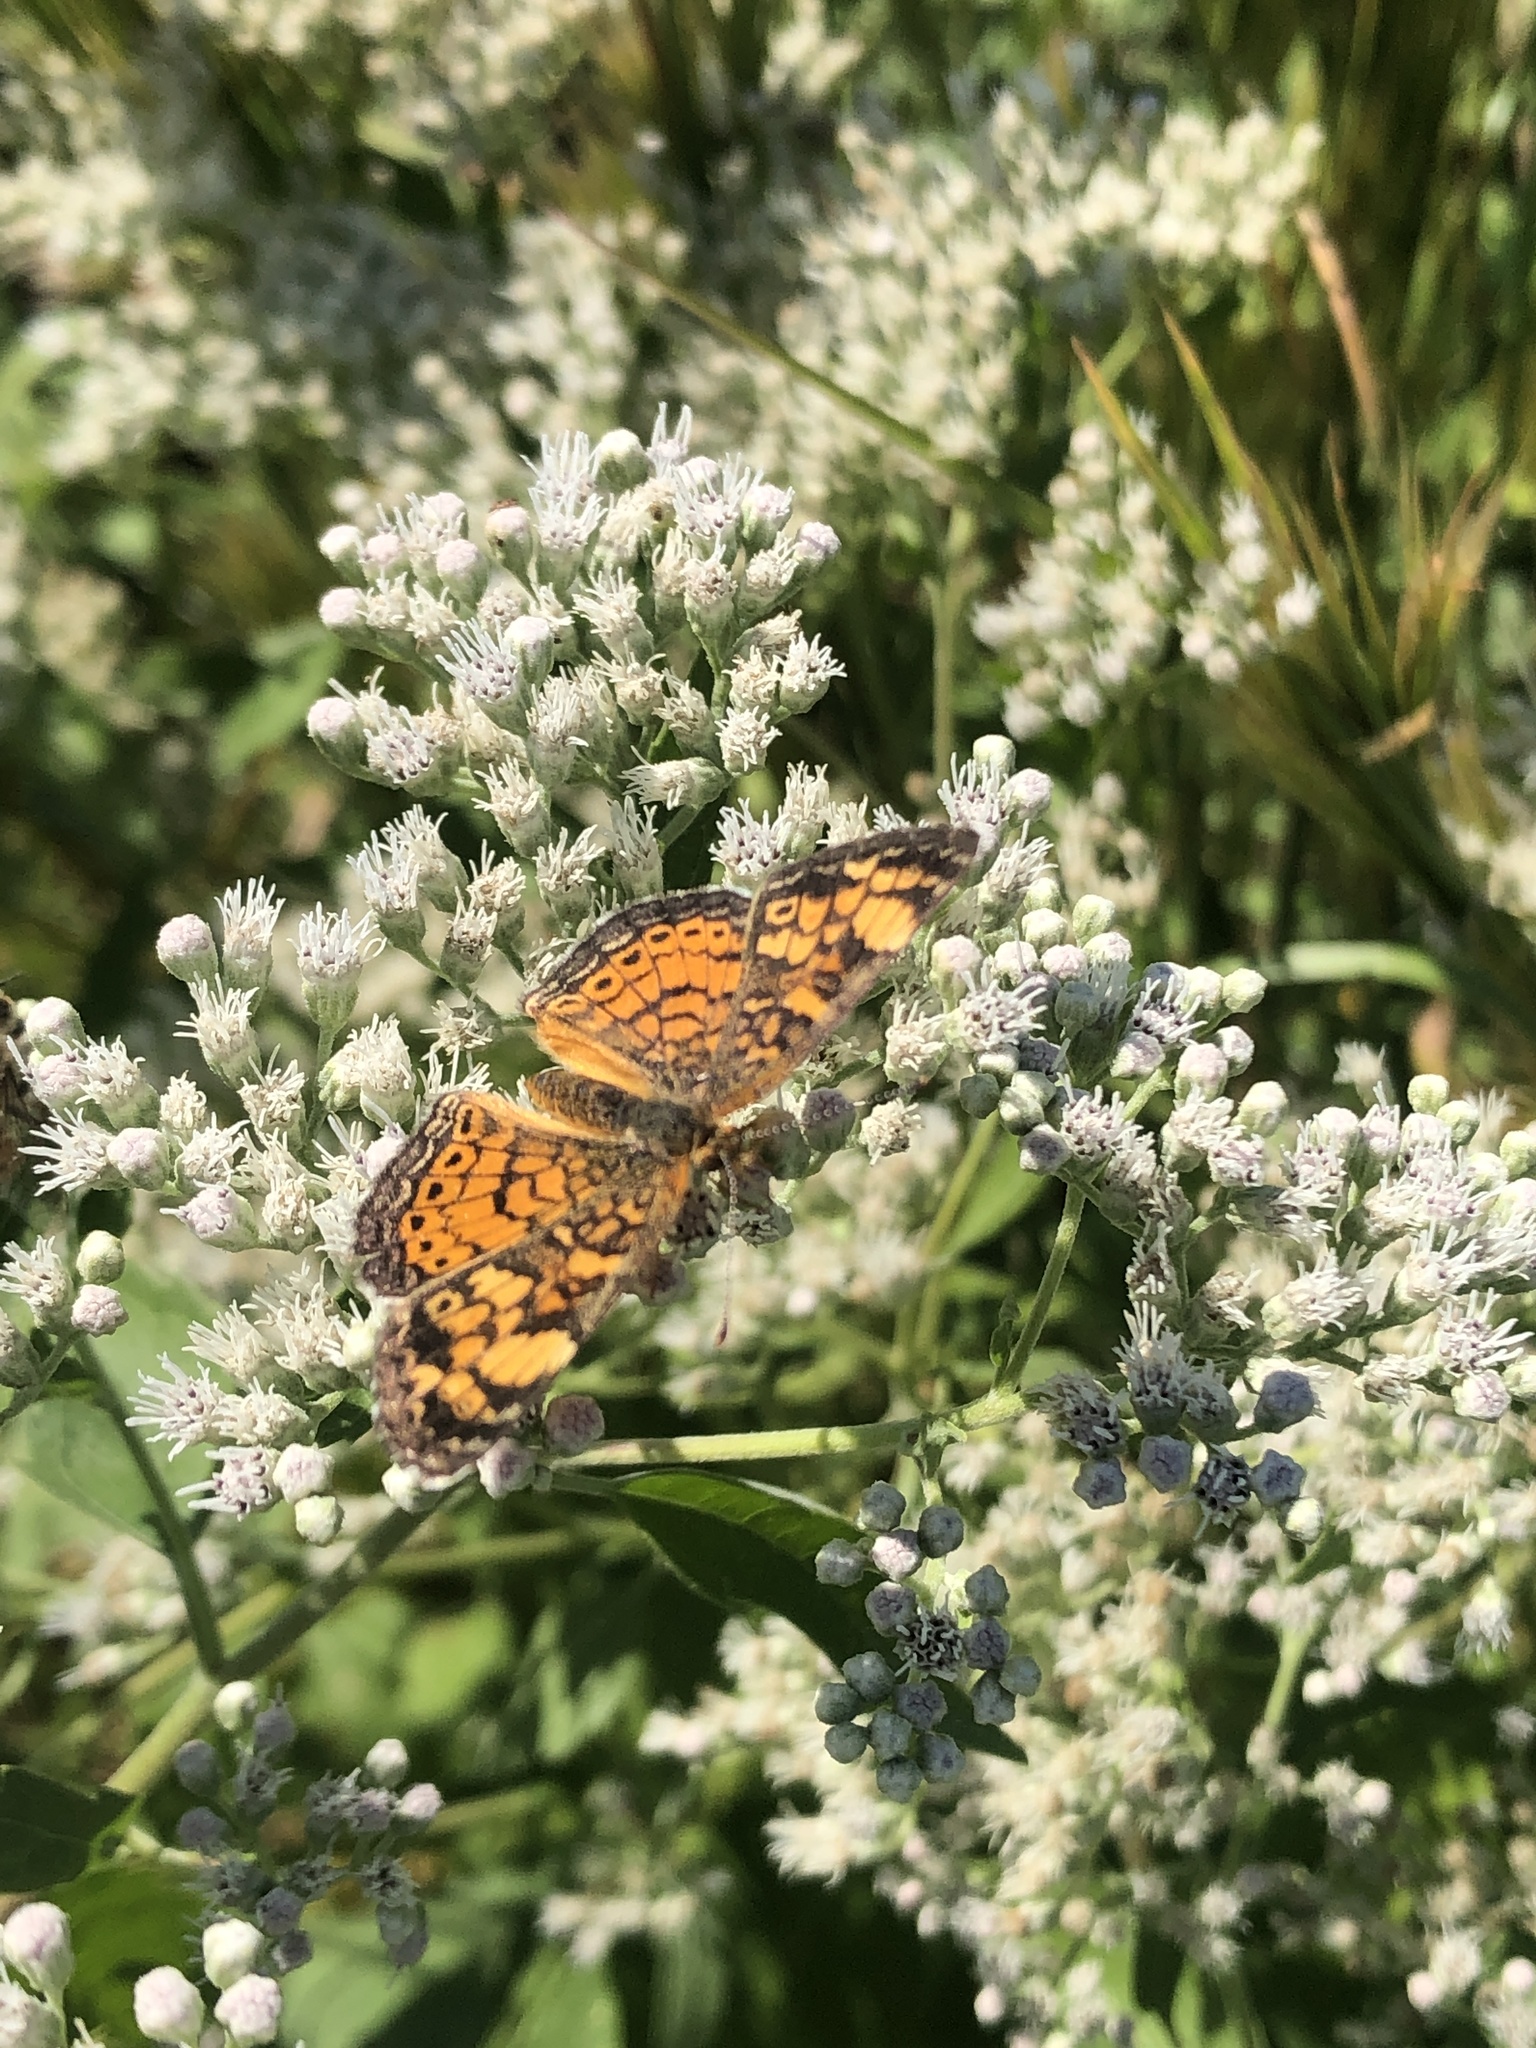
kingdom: Animalia
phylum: Arthropoda
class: Insecta
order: Lepidoptera
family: Nymphalidae
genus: Phyciodes
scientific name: Phyciodes tharos
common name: Pearl crescent
